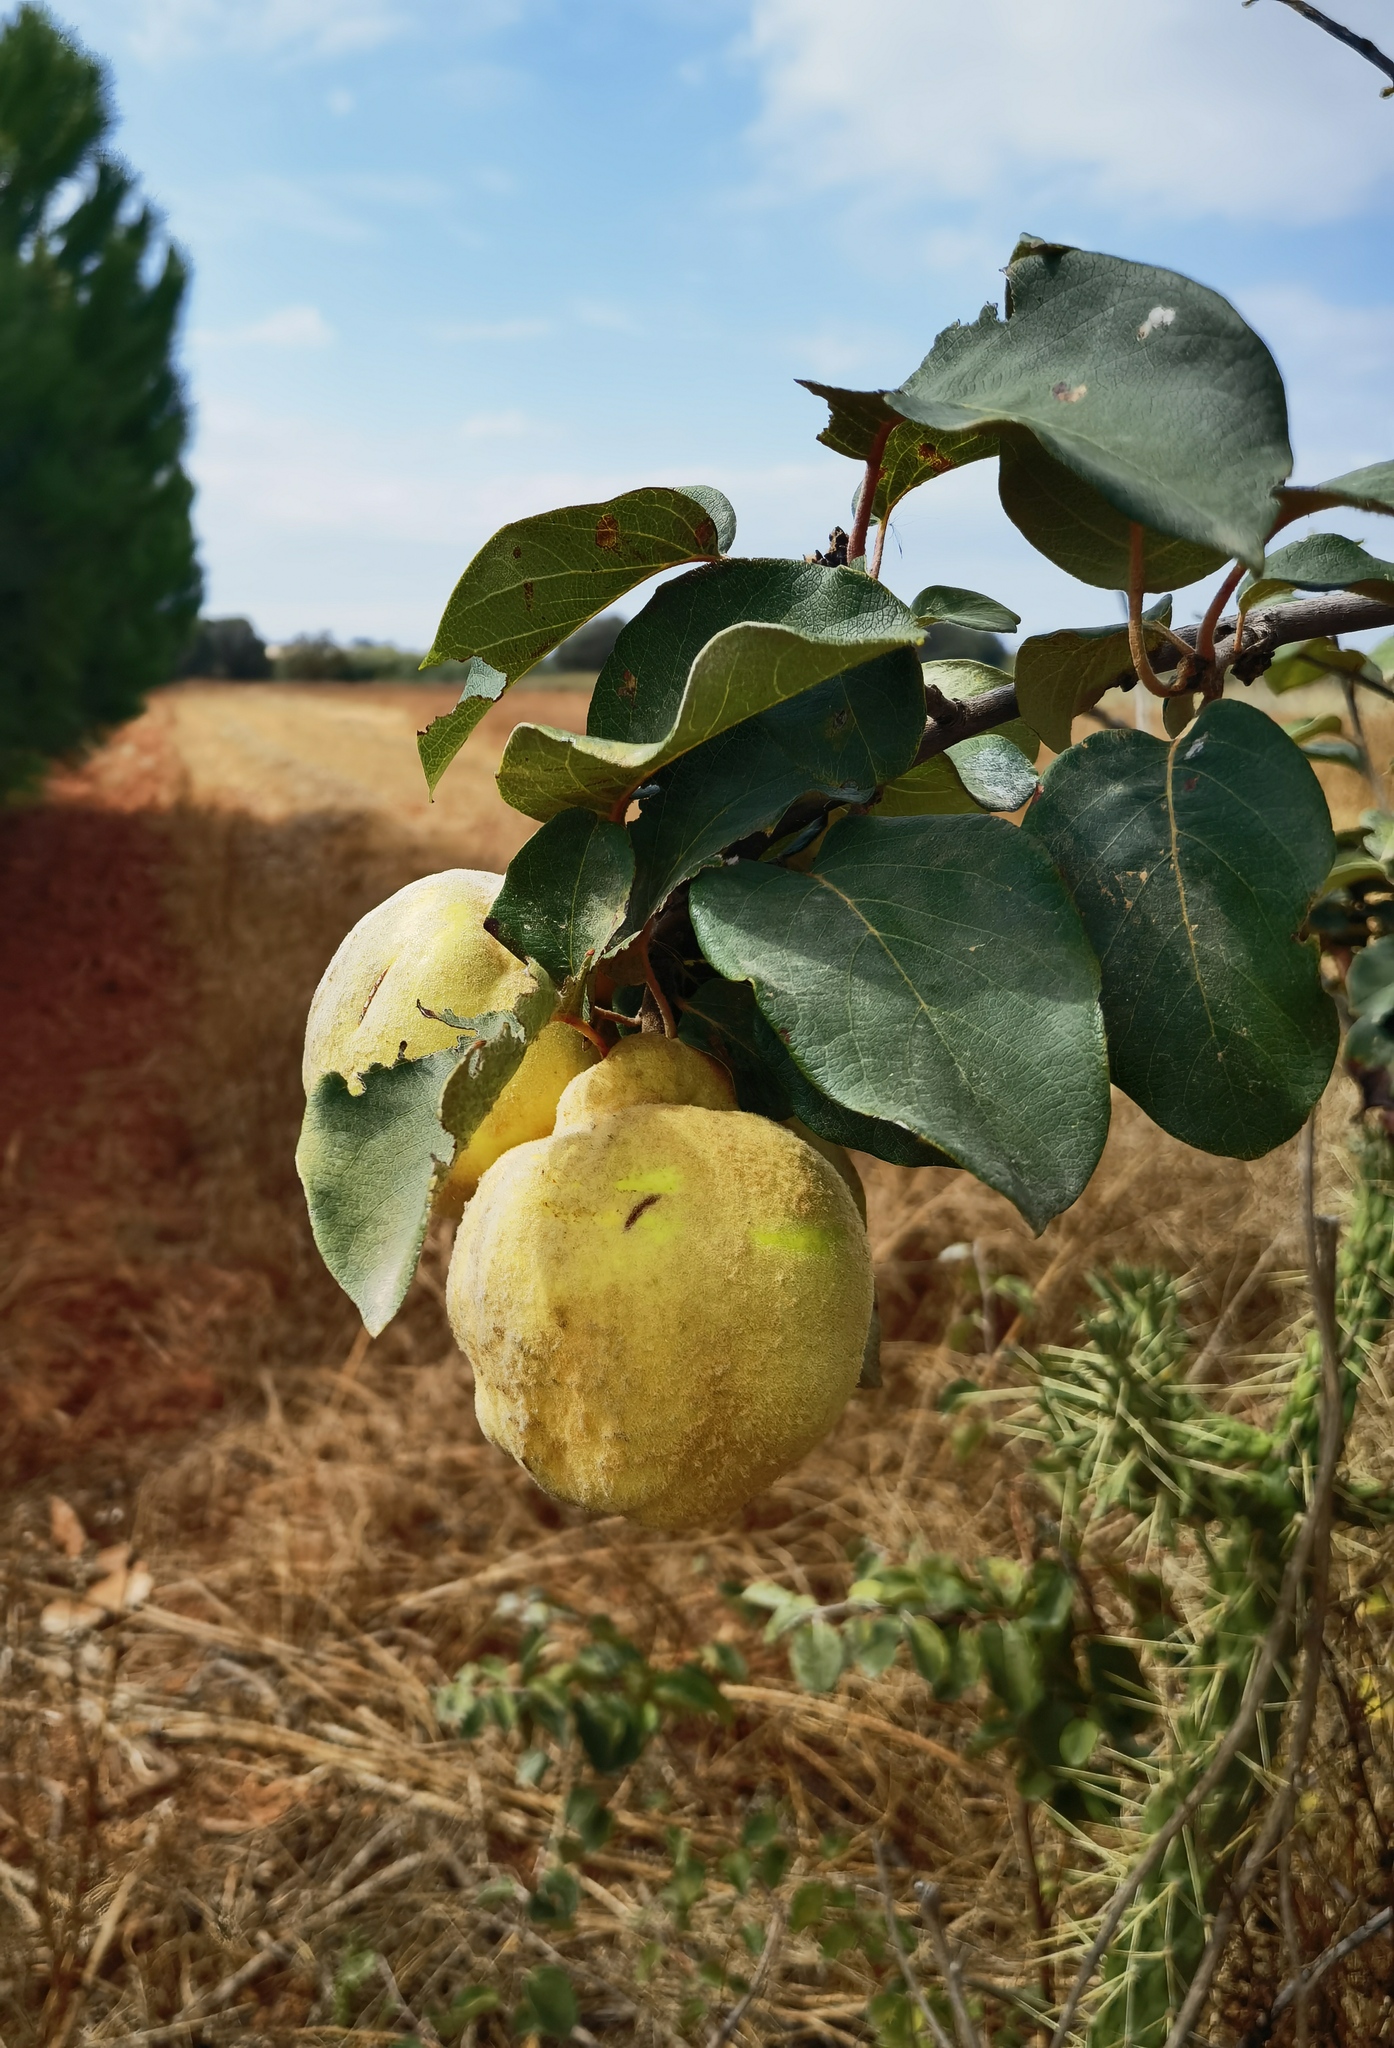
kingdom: Plantae
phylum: Tracheophyta
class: Magnoliopsida
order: Rosales
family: Rosaceae
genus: Cydonia
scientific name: Cydonia oblonga
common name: Quince
